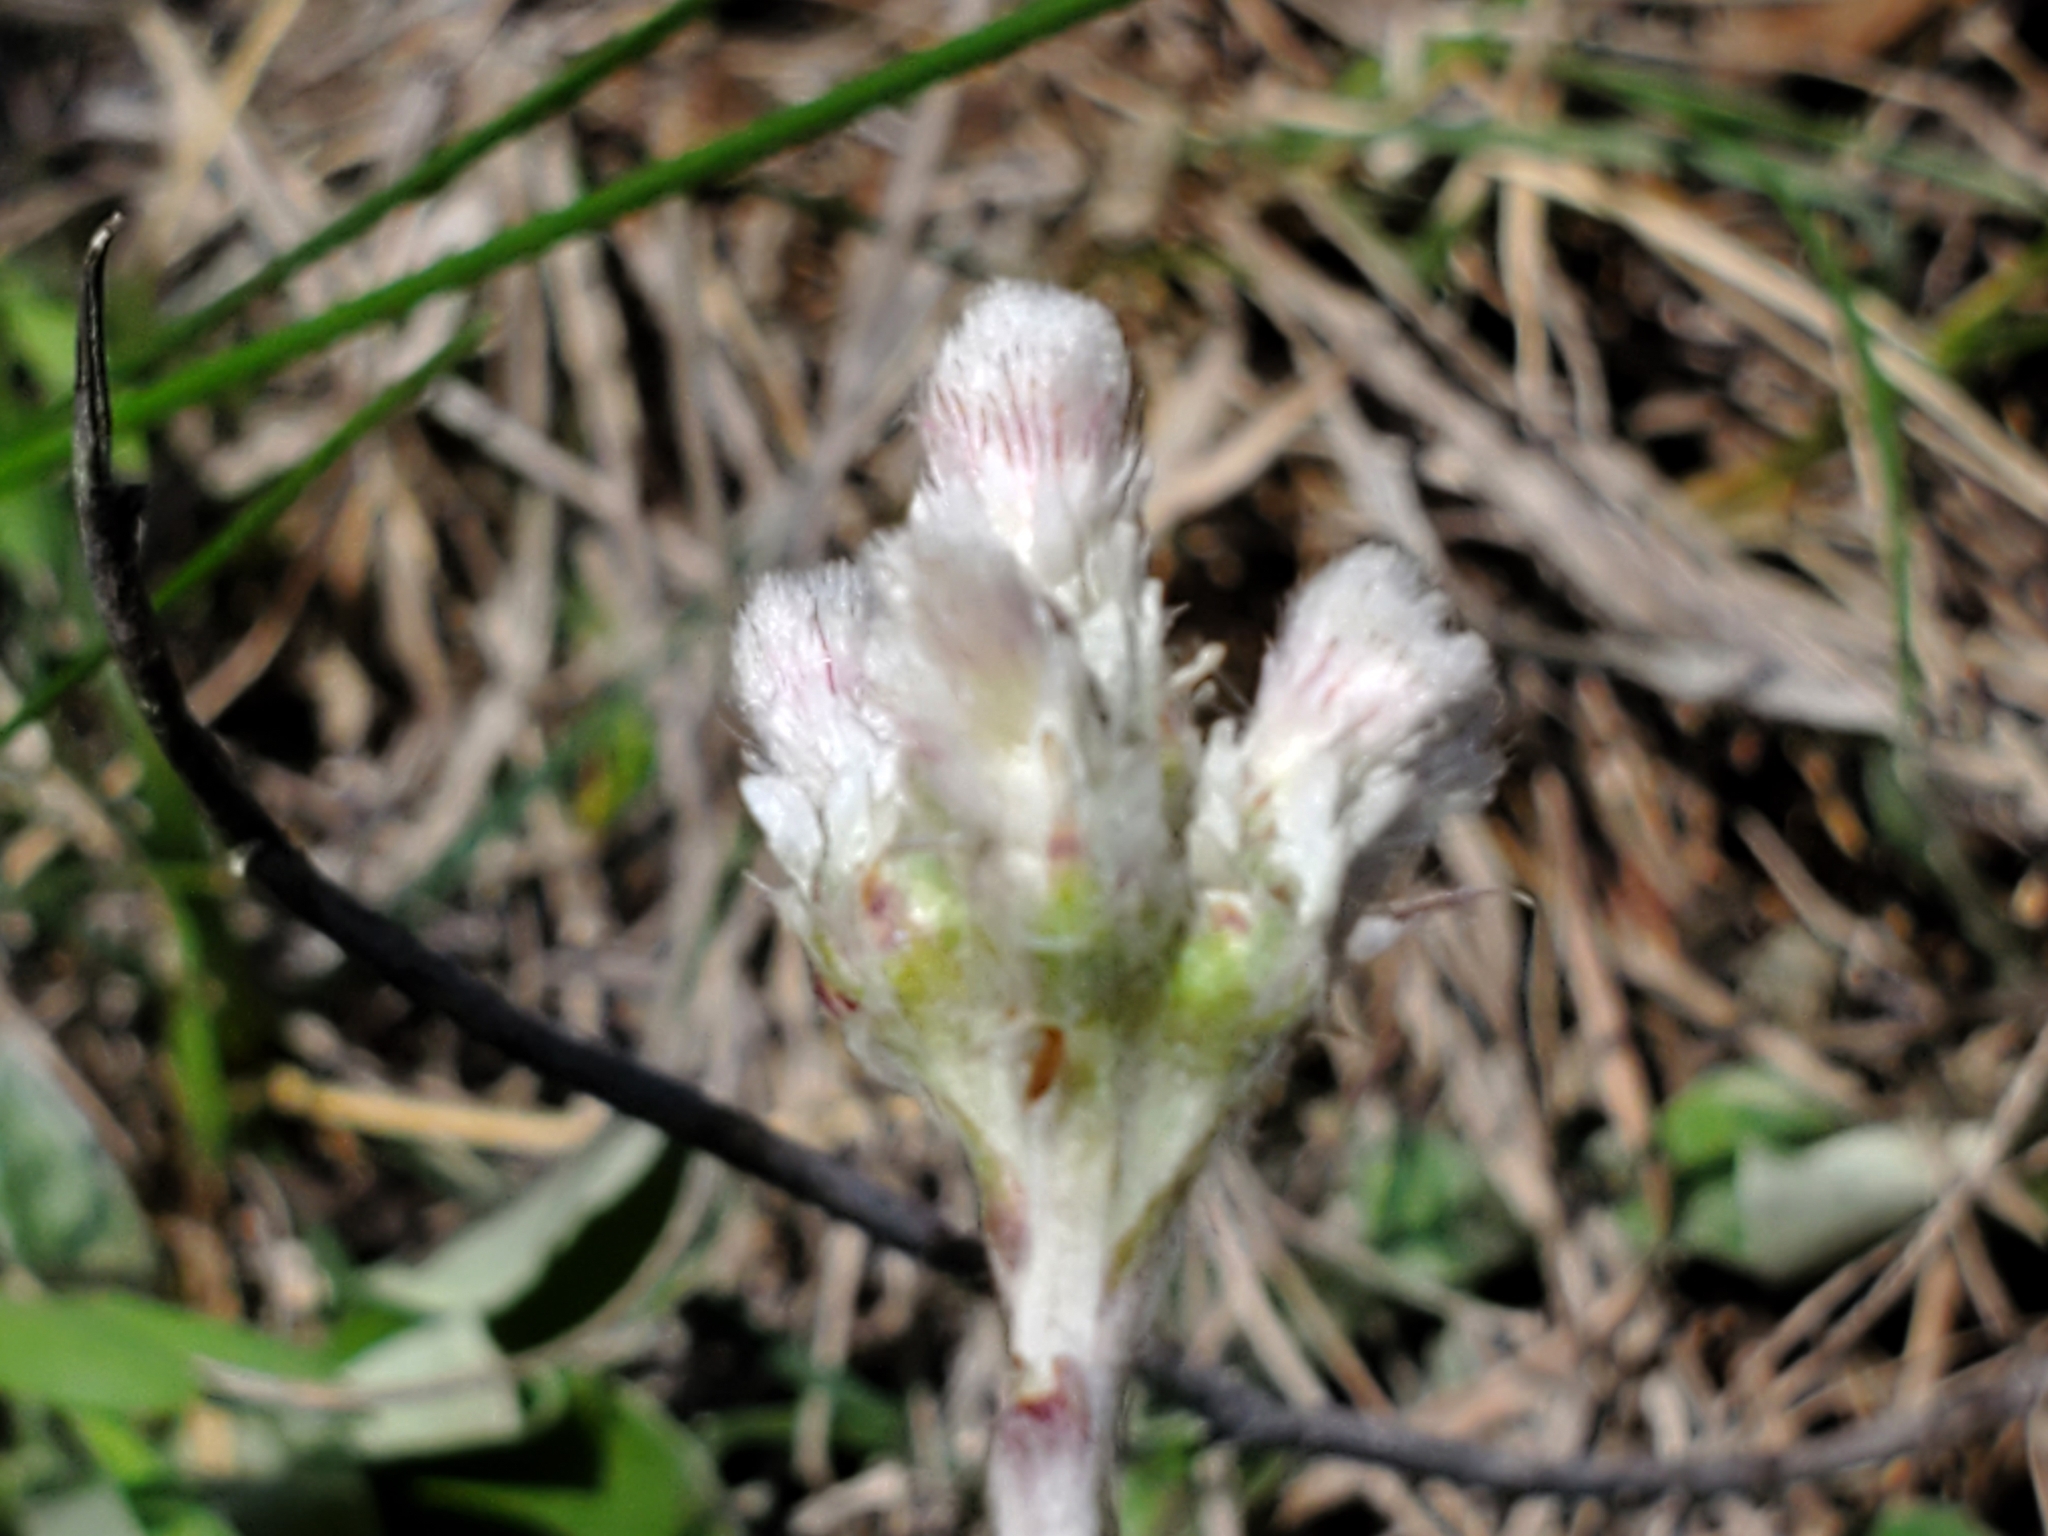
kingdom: Plantae
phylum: Tracheophyta
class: Magnoliopsida
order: Asterales
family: Asteraceae
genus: Antennaria
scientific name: Antennaria parlinii
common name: Parlin's pussytoes
